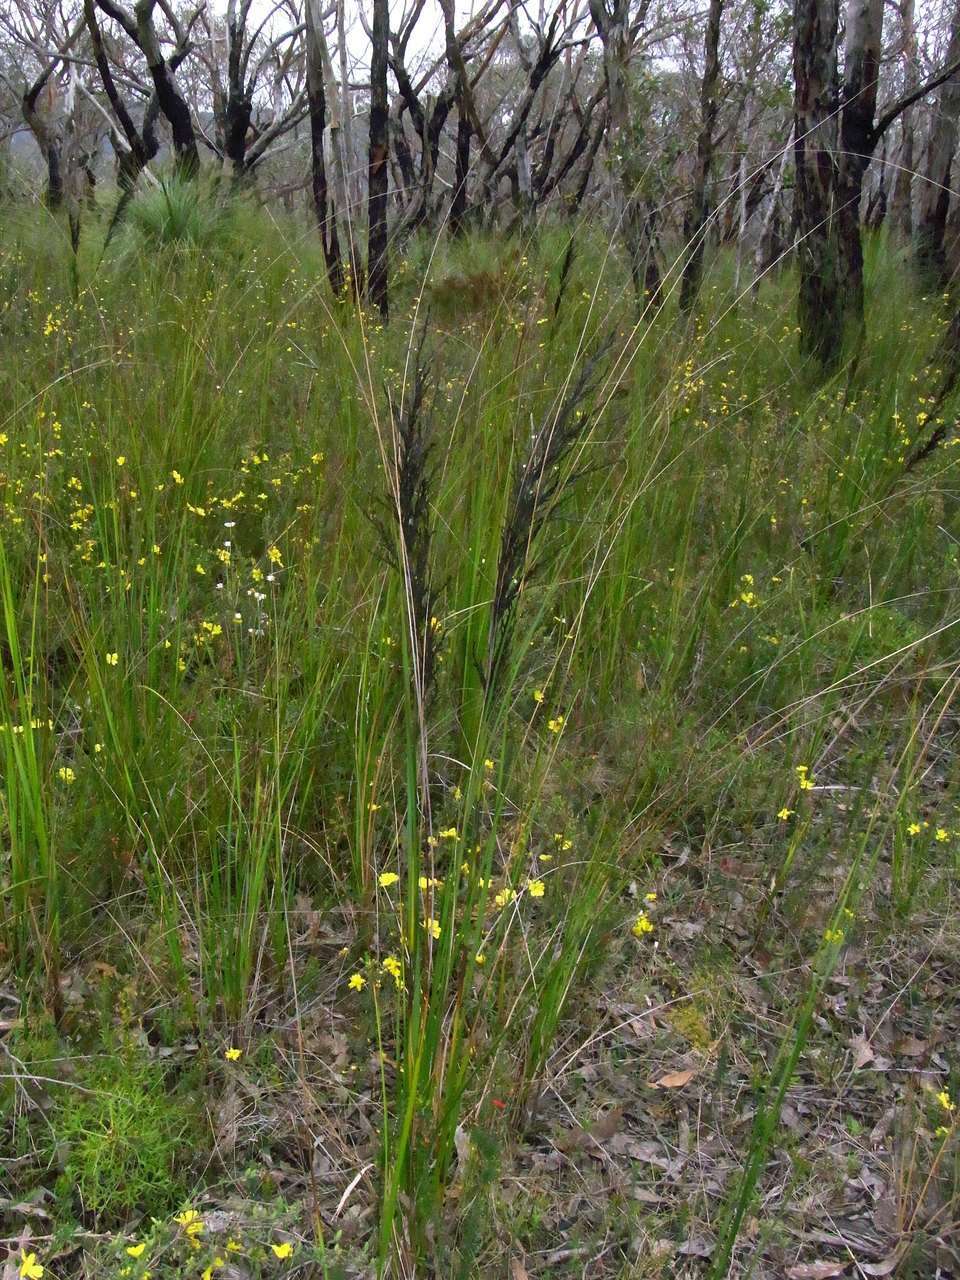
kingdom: Plantae
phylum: Tracheophyta
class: Liliopsida
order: Poales
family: Cyperaceae
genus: Gahnia
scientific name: Gahnia radula
